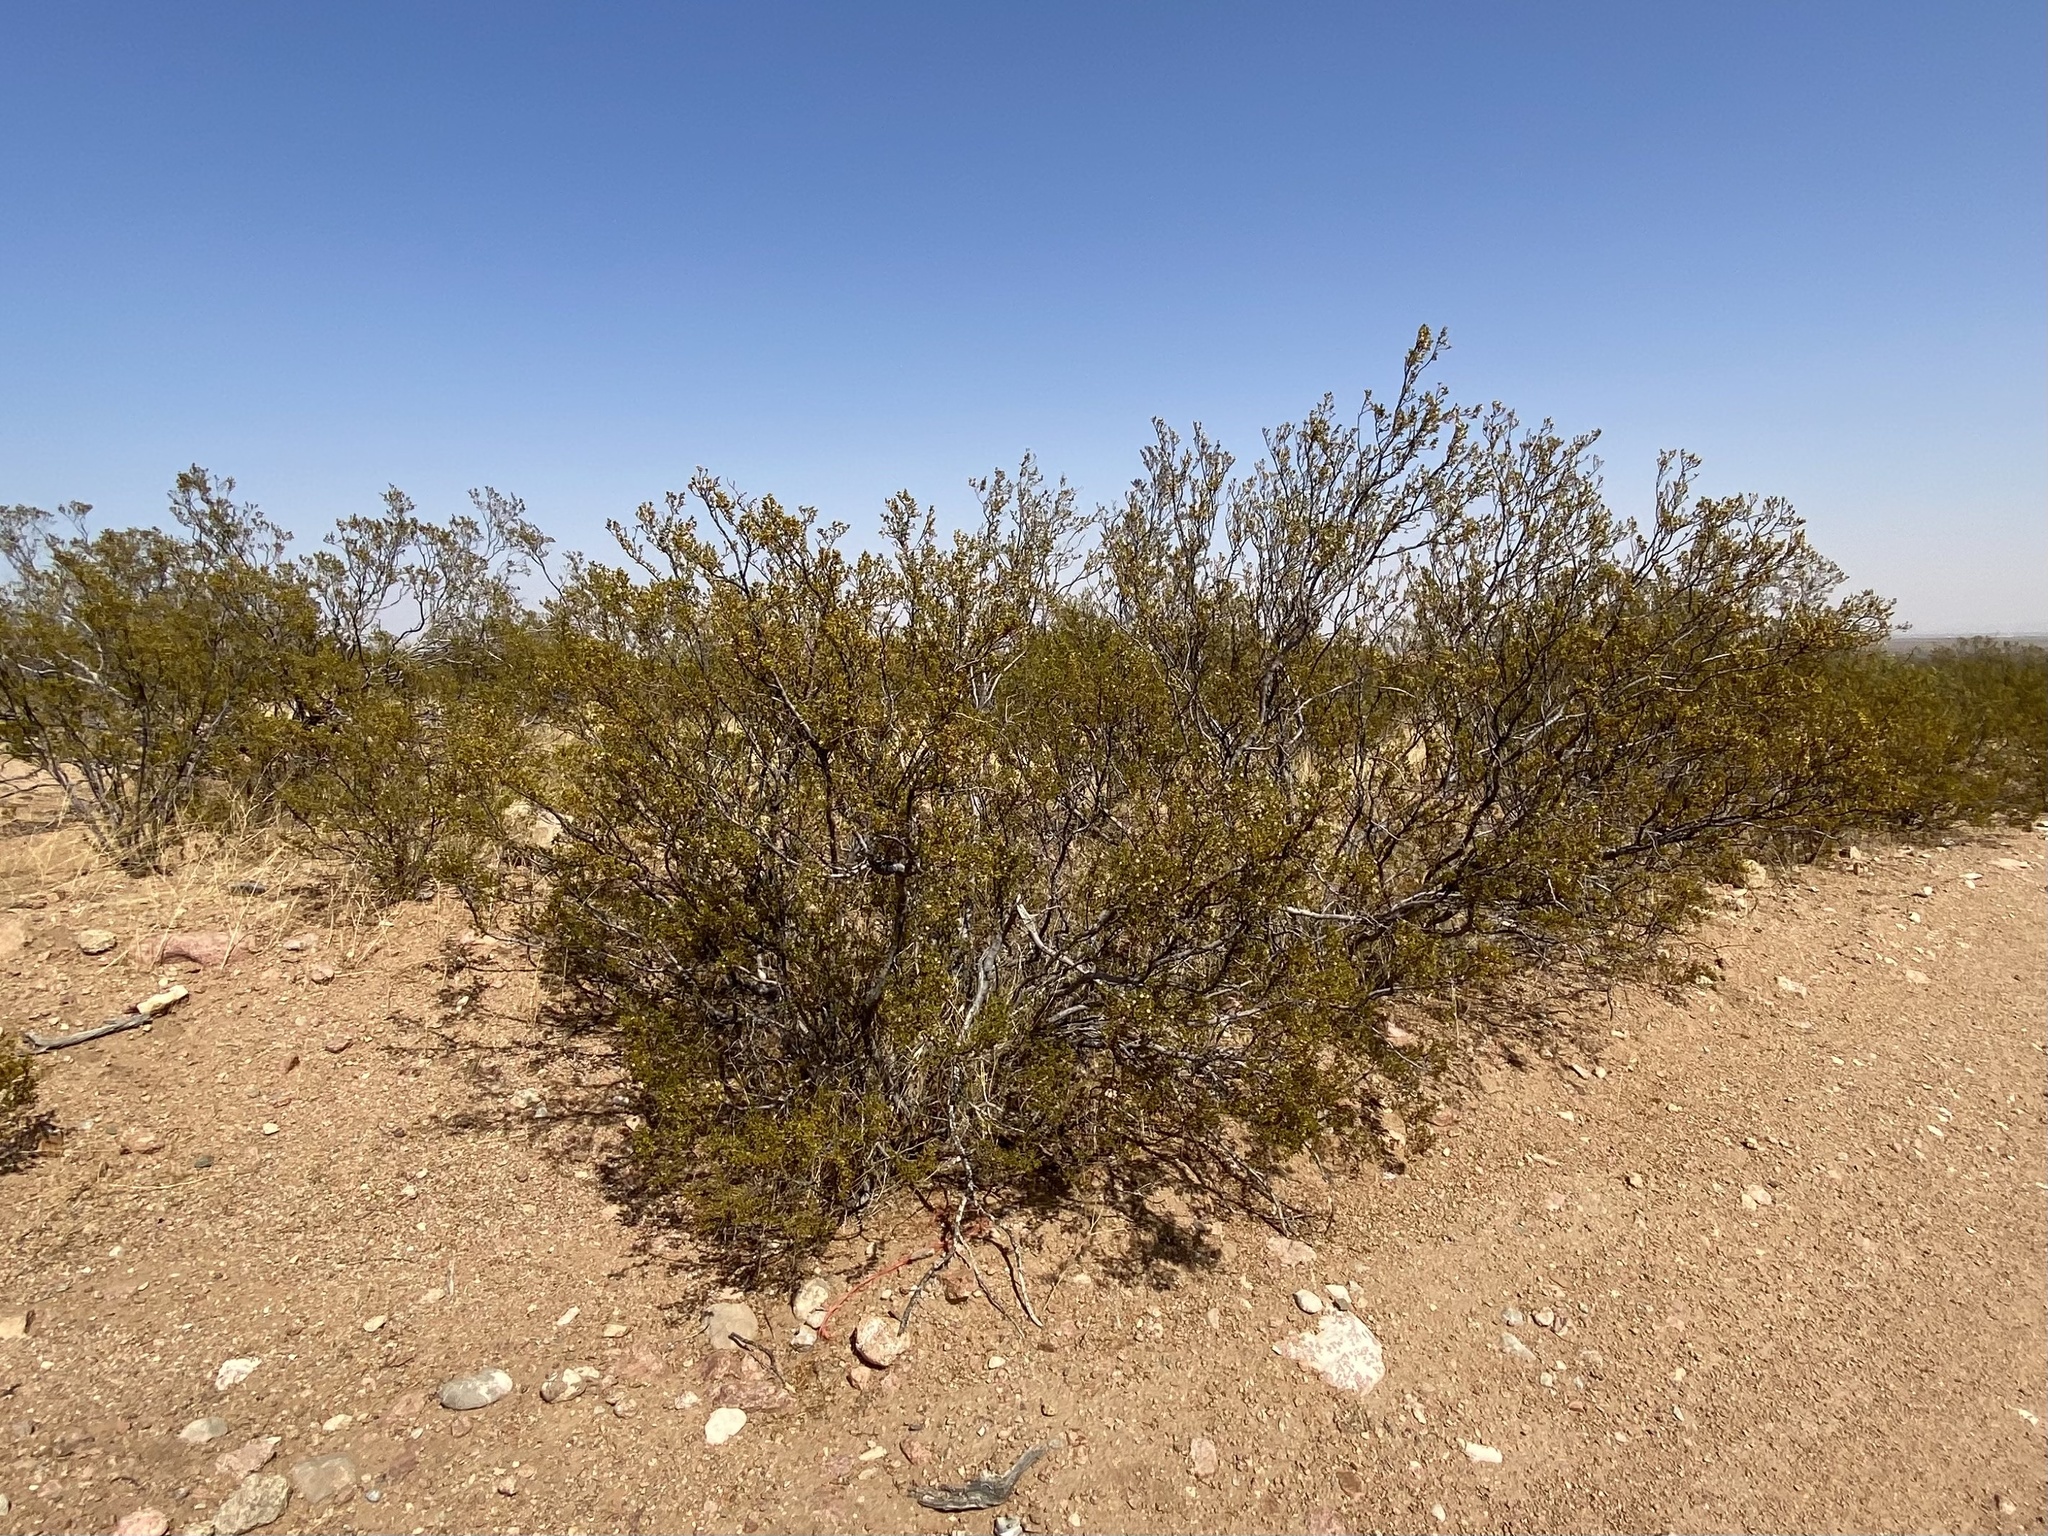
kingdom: Plantae
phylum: Tracheophyta
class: Magnoliopsida
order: Zygophyllales
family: Zygophyllaceae
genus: Larrea
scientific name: Larrea tridentata
